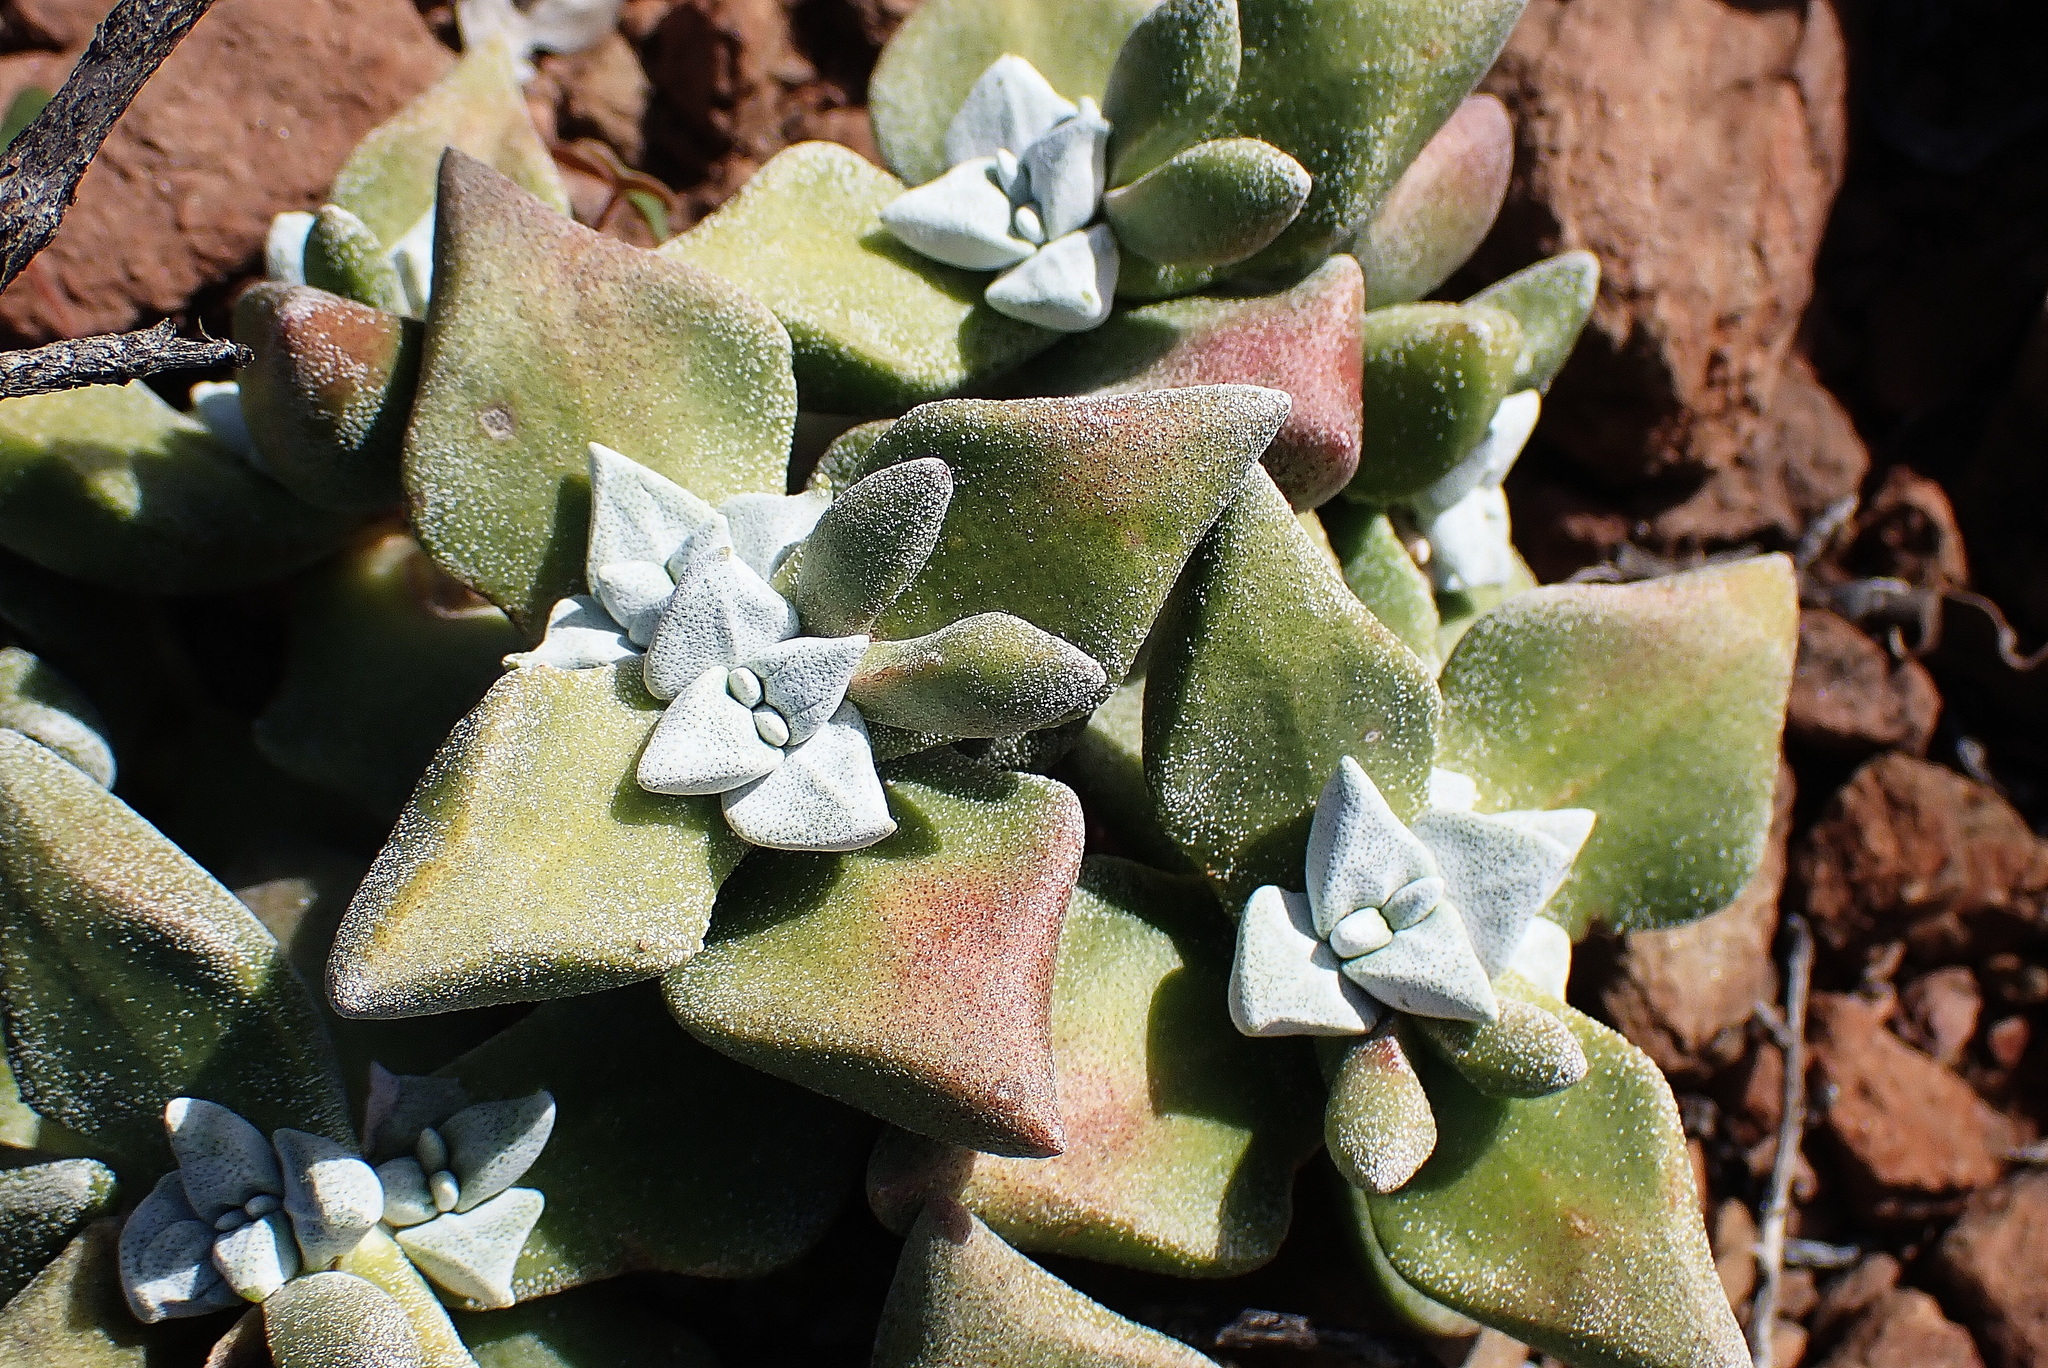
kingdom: Plantae
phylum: Tracheophyta
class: Magnoliopsida
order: Saxifragales
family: Crassulaceae
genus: Crassula
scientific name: Crassula deltoidea
